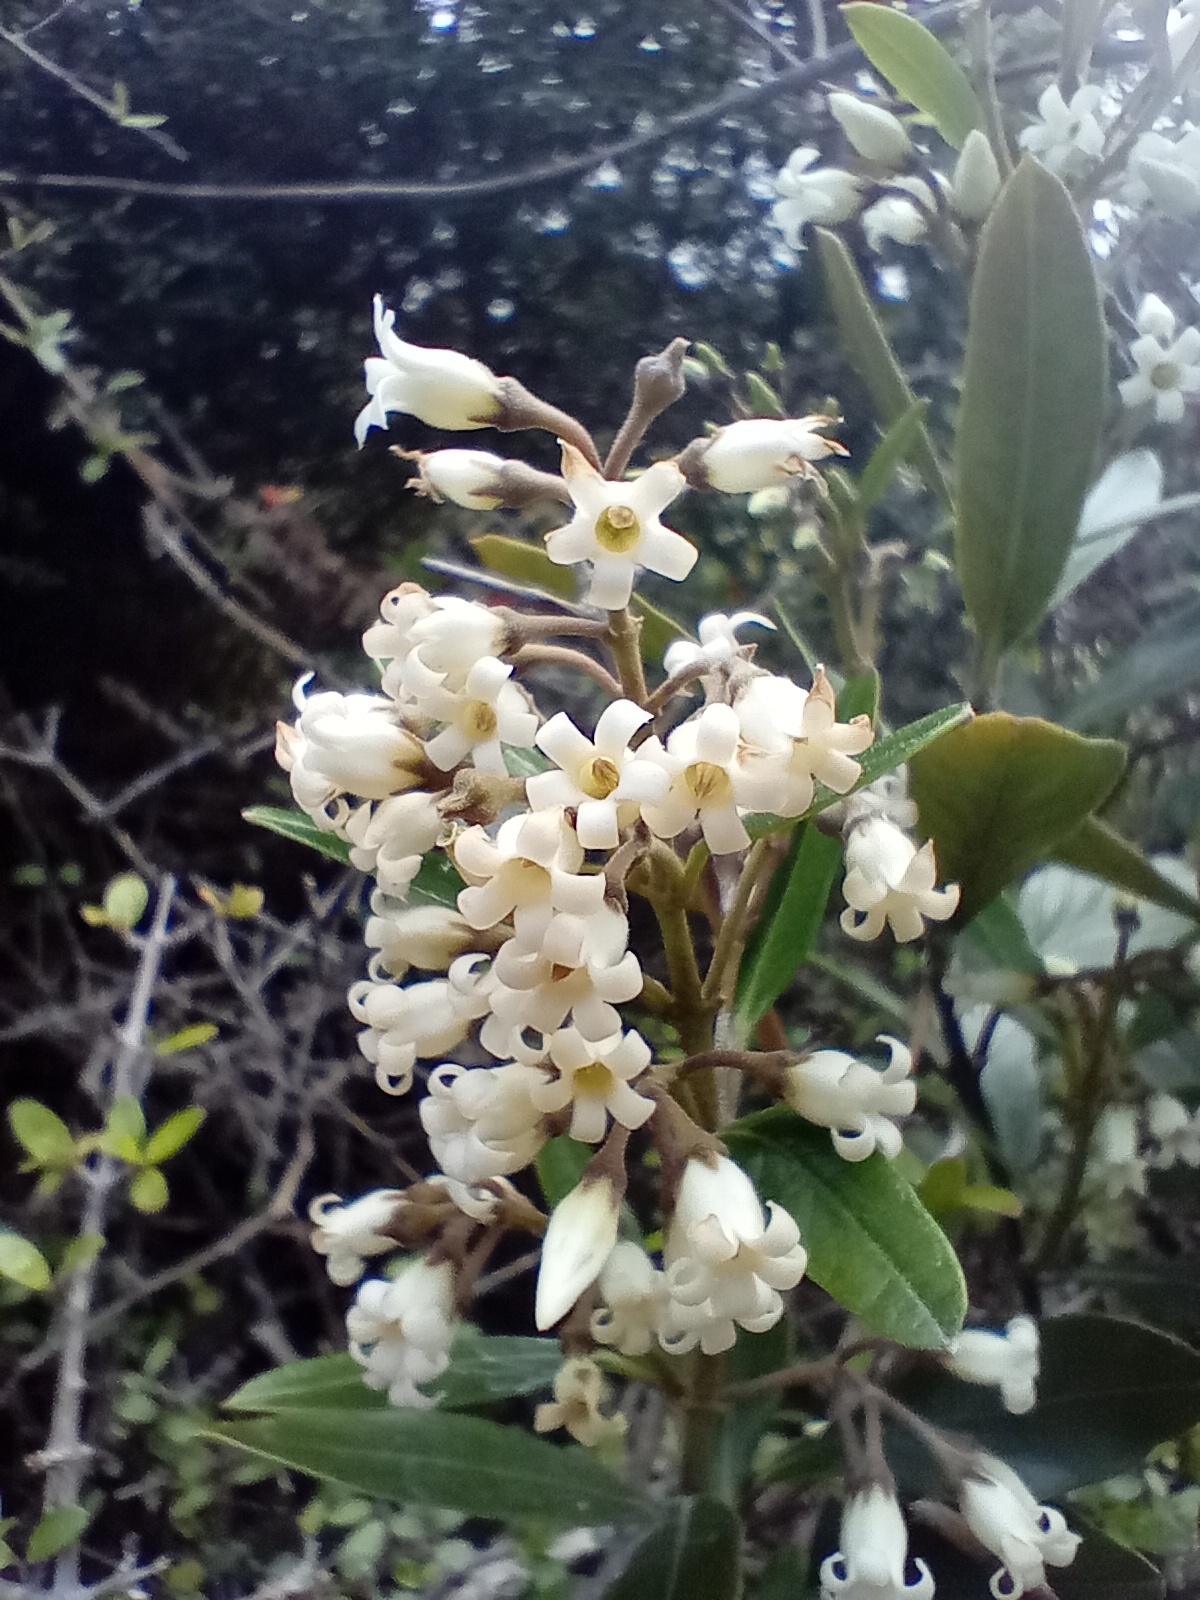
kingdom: Plantae
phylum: Tracheophyta
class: Magnoliopsida
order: Gentianales
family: Apocynaceae
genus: Parsonsia
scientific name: Parsonsia heterophylla
